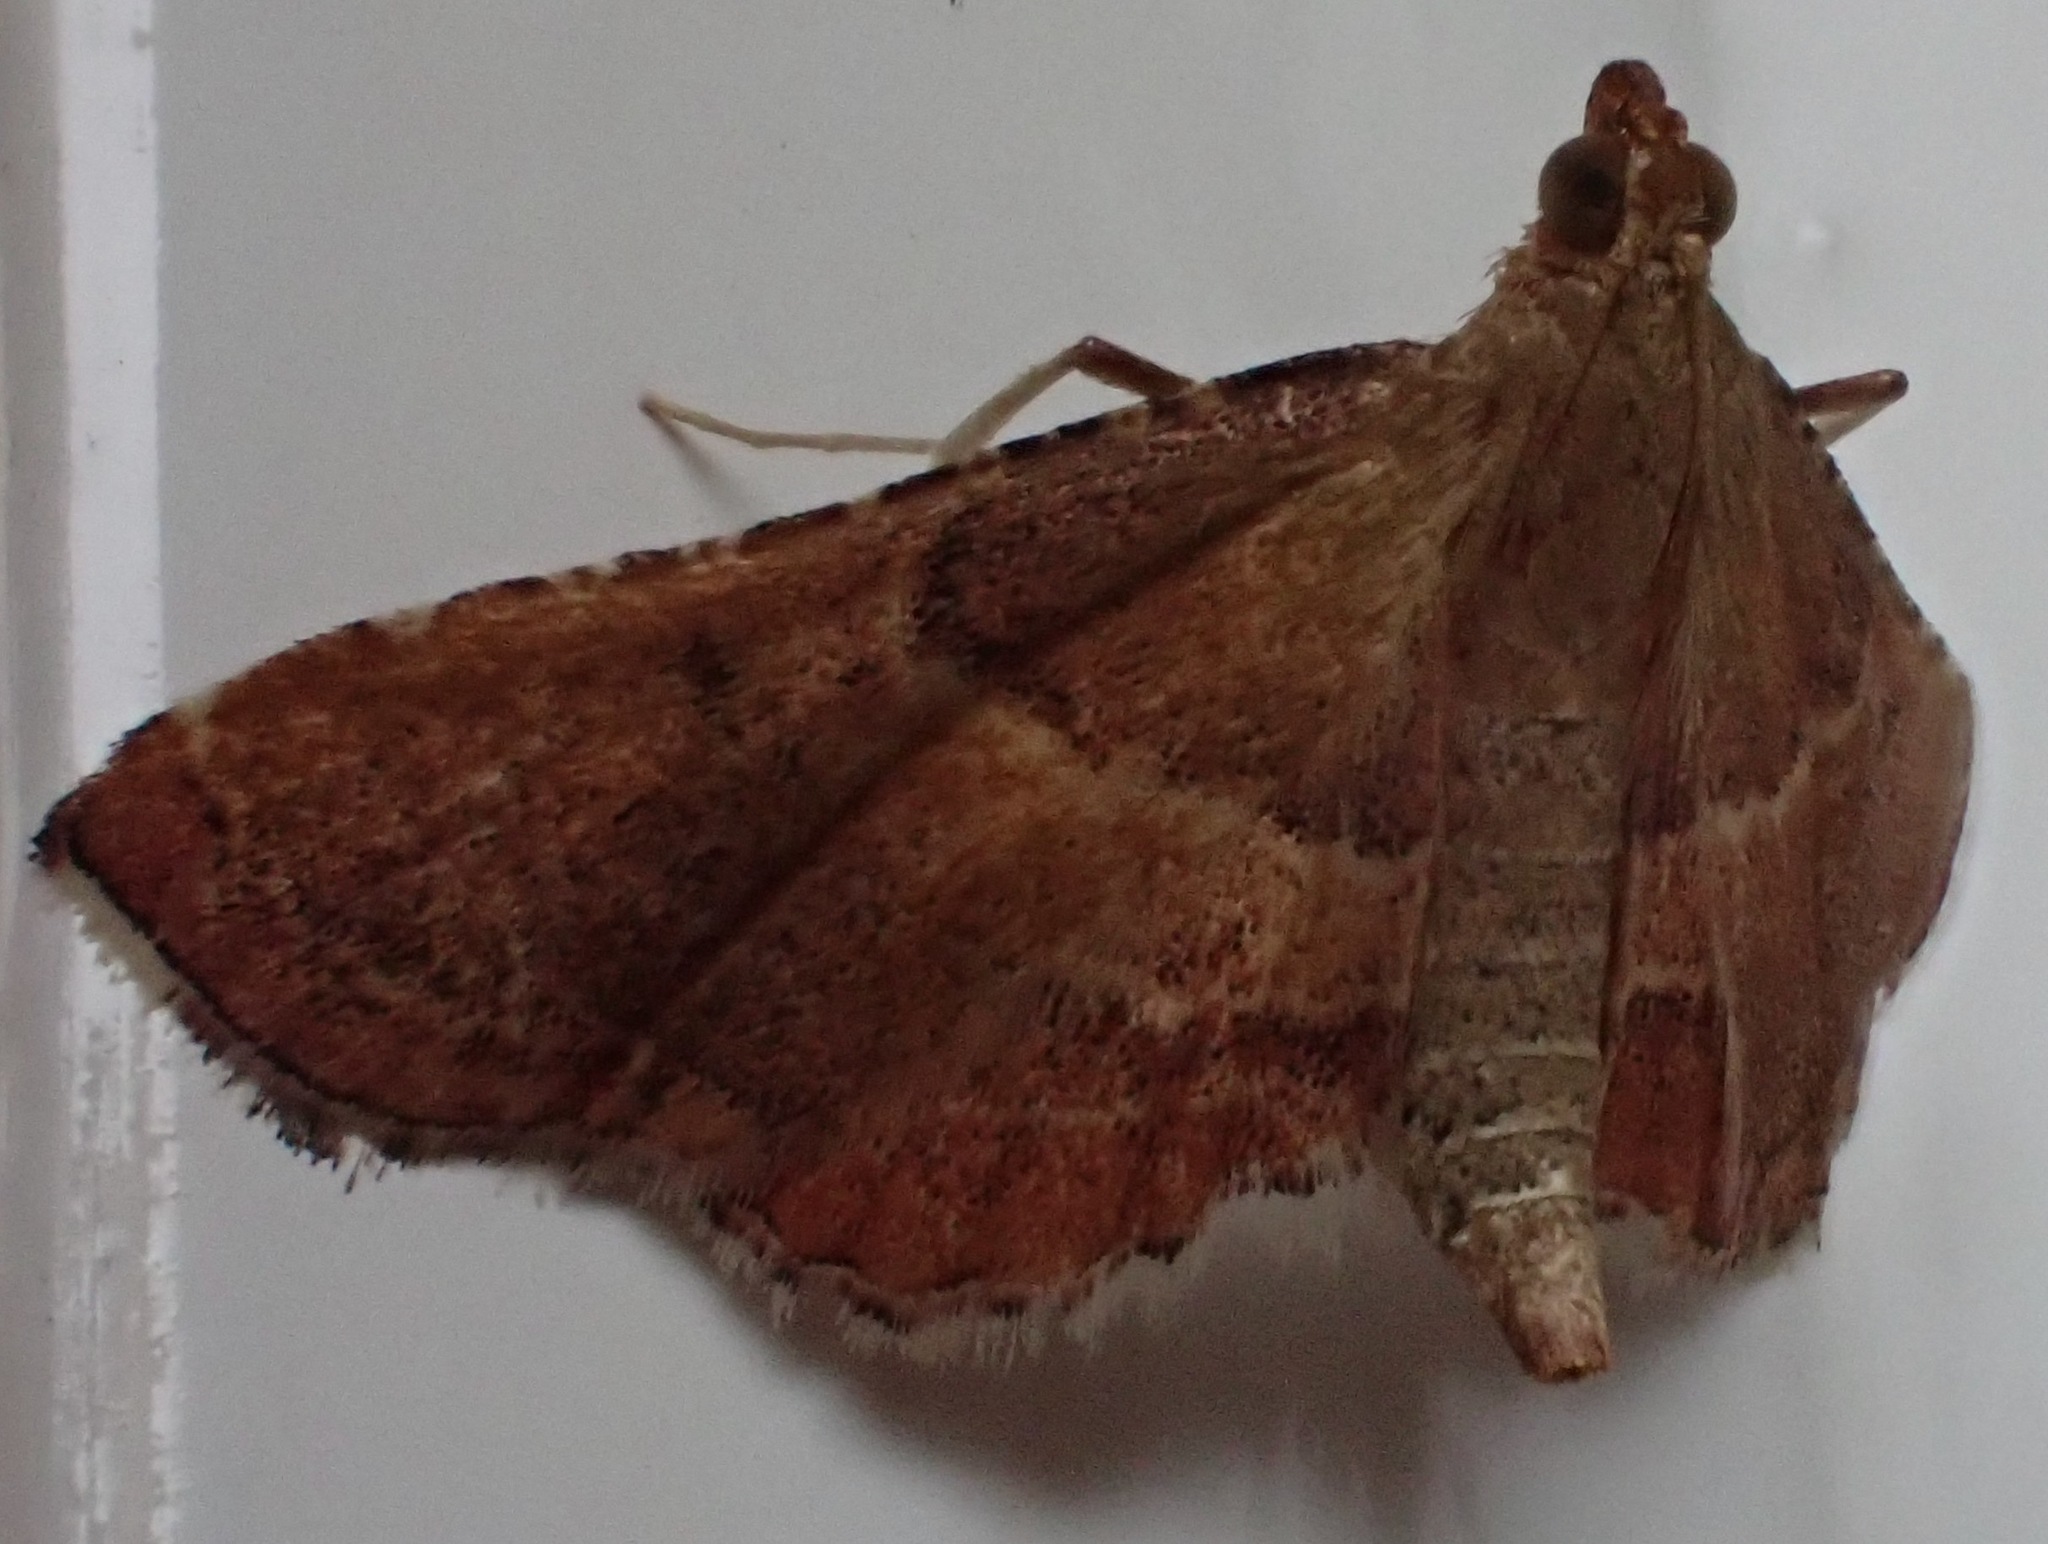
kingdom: Animalia
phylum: Arthropoda
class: Insecta
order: Lepidoptera
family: Pyralidae
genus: Endotricha
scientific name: Endotricha flammealis
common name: Rosy tabby
